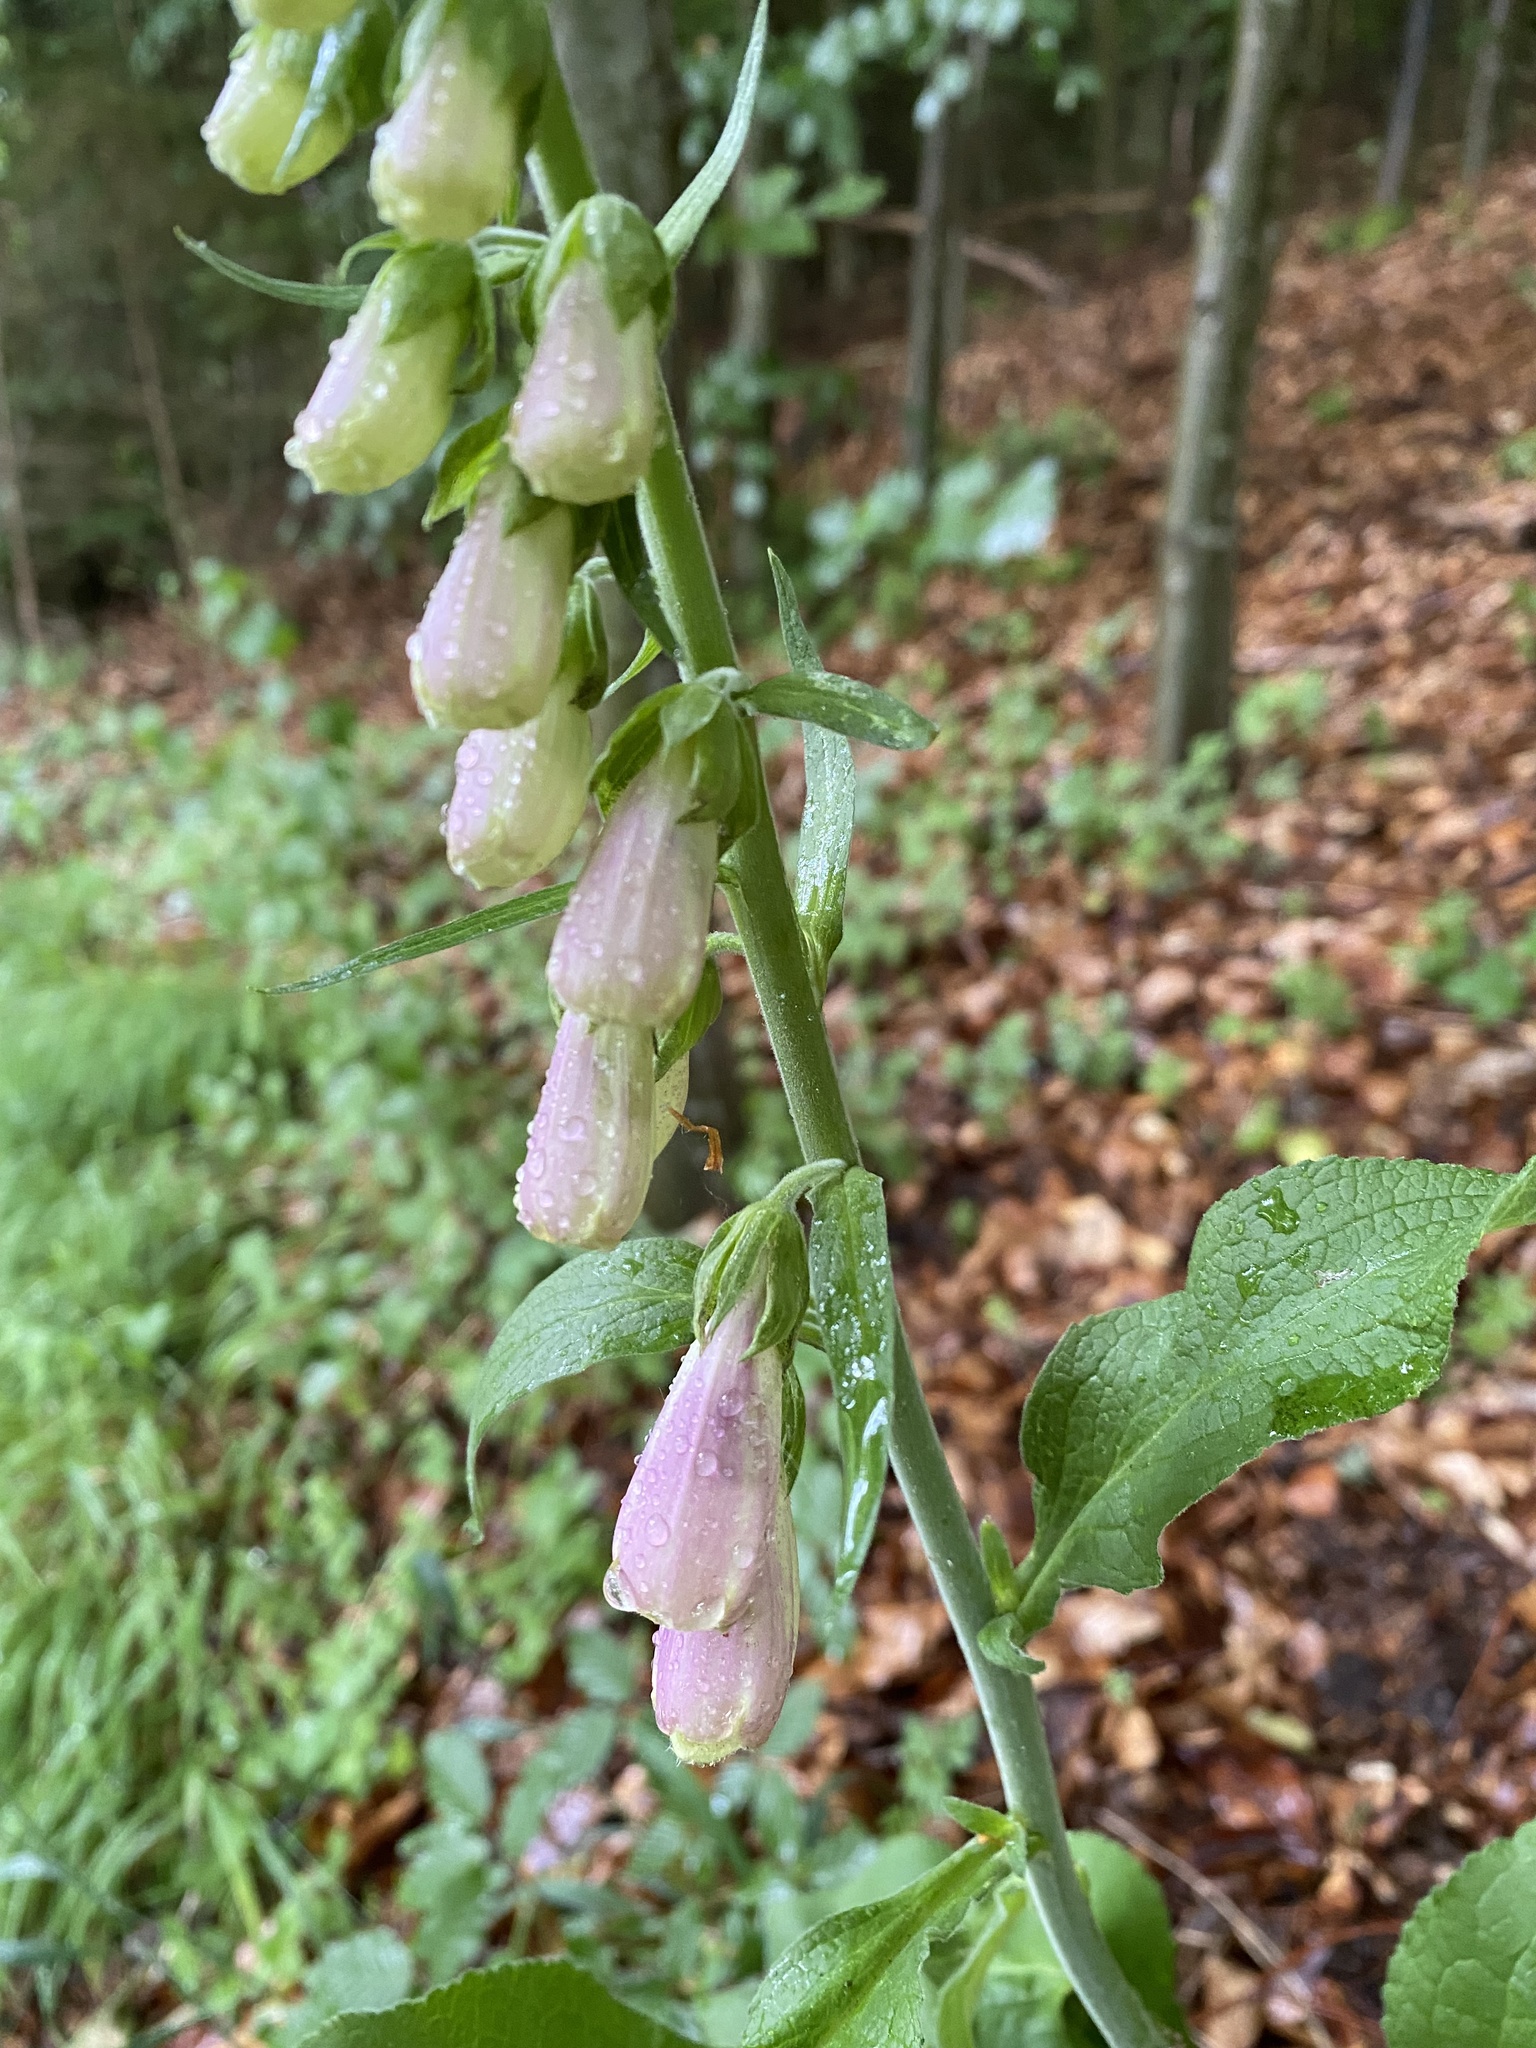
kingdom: Plantae
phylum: Tracheophyta
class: Magnoliopsida
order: Lamiales
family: Plantaginaceae
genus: Digitalis
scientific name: Digitalis purpurea
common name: Foxglove
